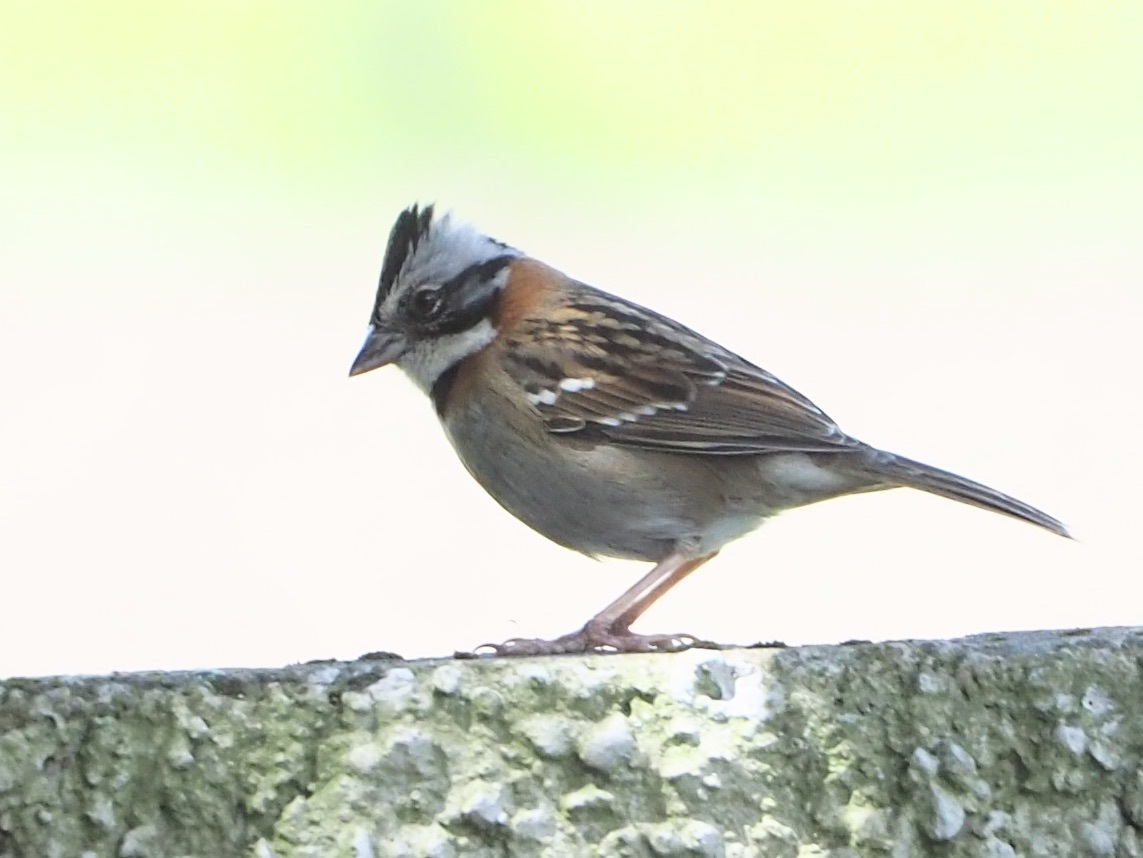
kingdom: Animalia
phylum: Chordata
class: Aves
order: Passeriformes
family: Passerellidae
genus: Zonotrichia
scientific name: Zonotrichia capensis
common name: Rufous-collared sparrow
